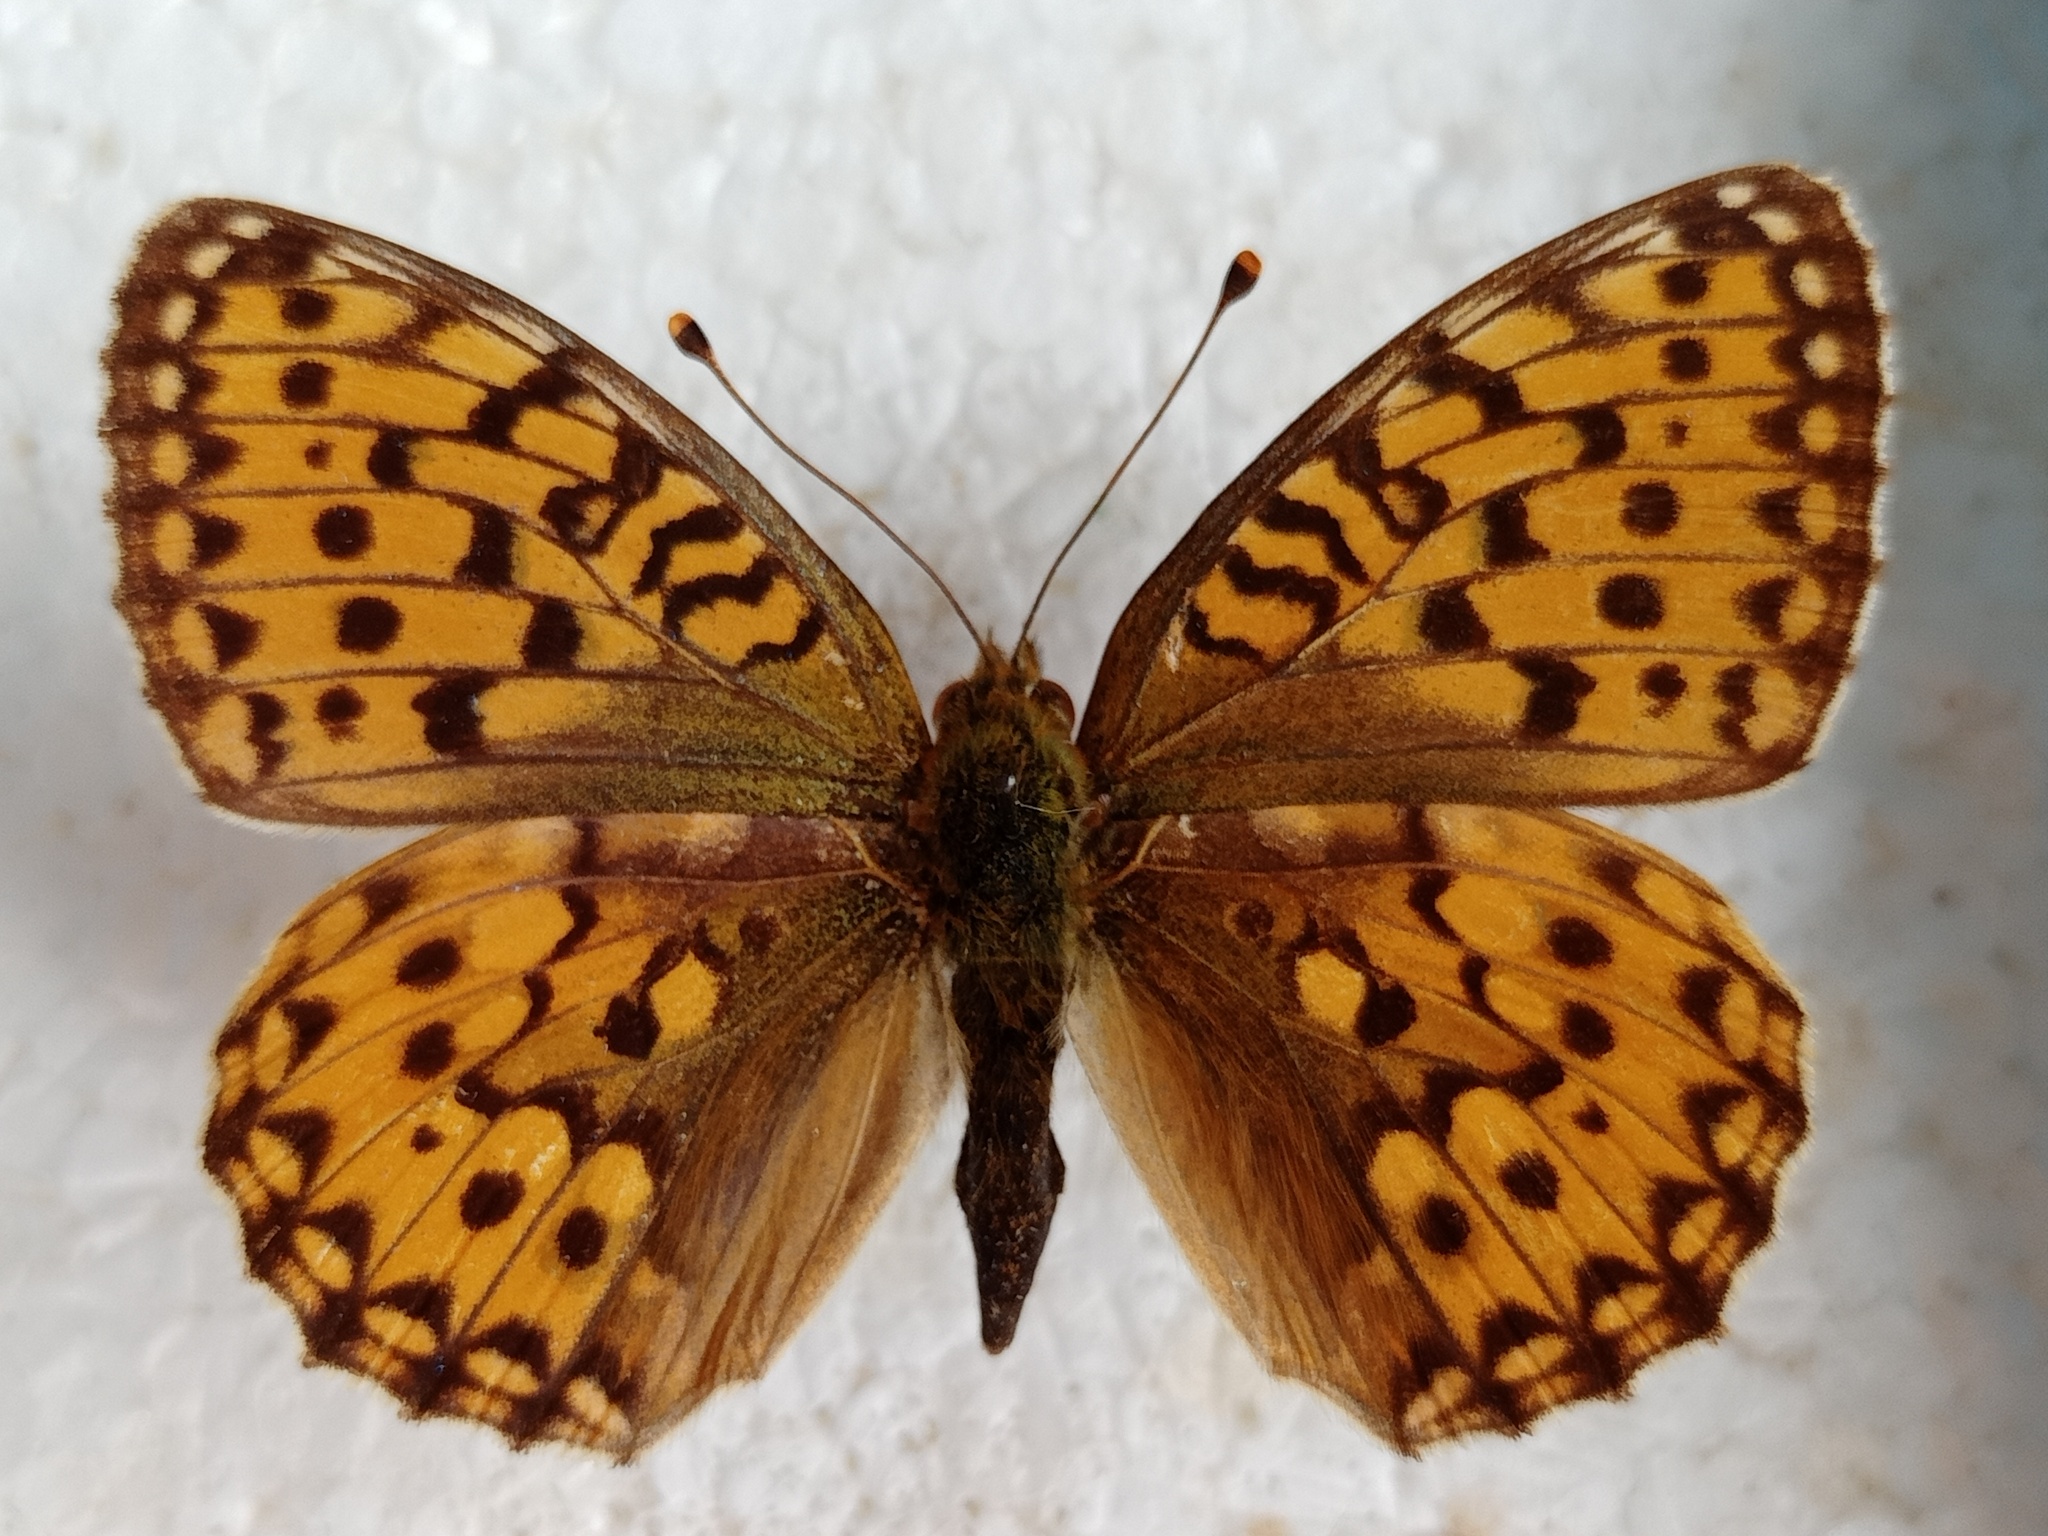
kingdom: Animalia
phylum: Arthropoda
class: Insecta
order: Lepidoptera
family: Nymphalidae
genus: Speyeria
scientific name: Speyeria aglaja
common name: Dark green fritillary
